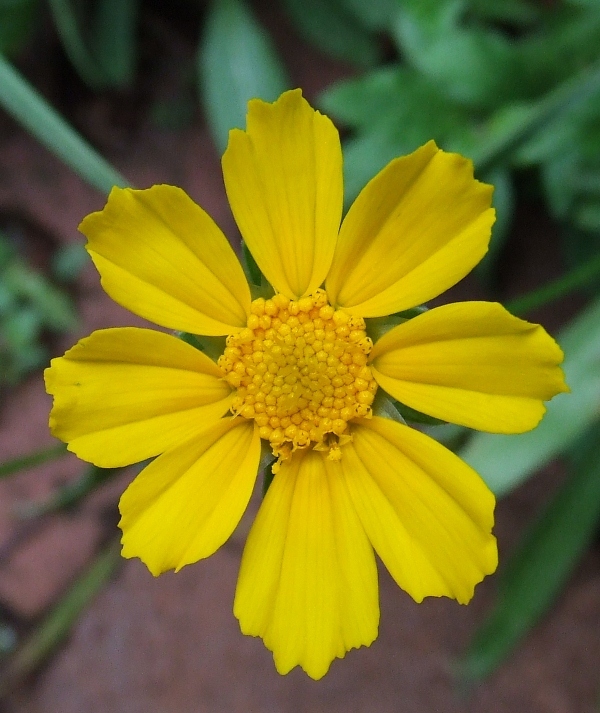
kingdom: Plantae
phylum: Tracheophyta
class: Magnoliopsida
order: Asterales
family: Asteraceae
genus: Coreopsis
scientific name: Coreopsis lanceolata
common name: Garden coreopsis
